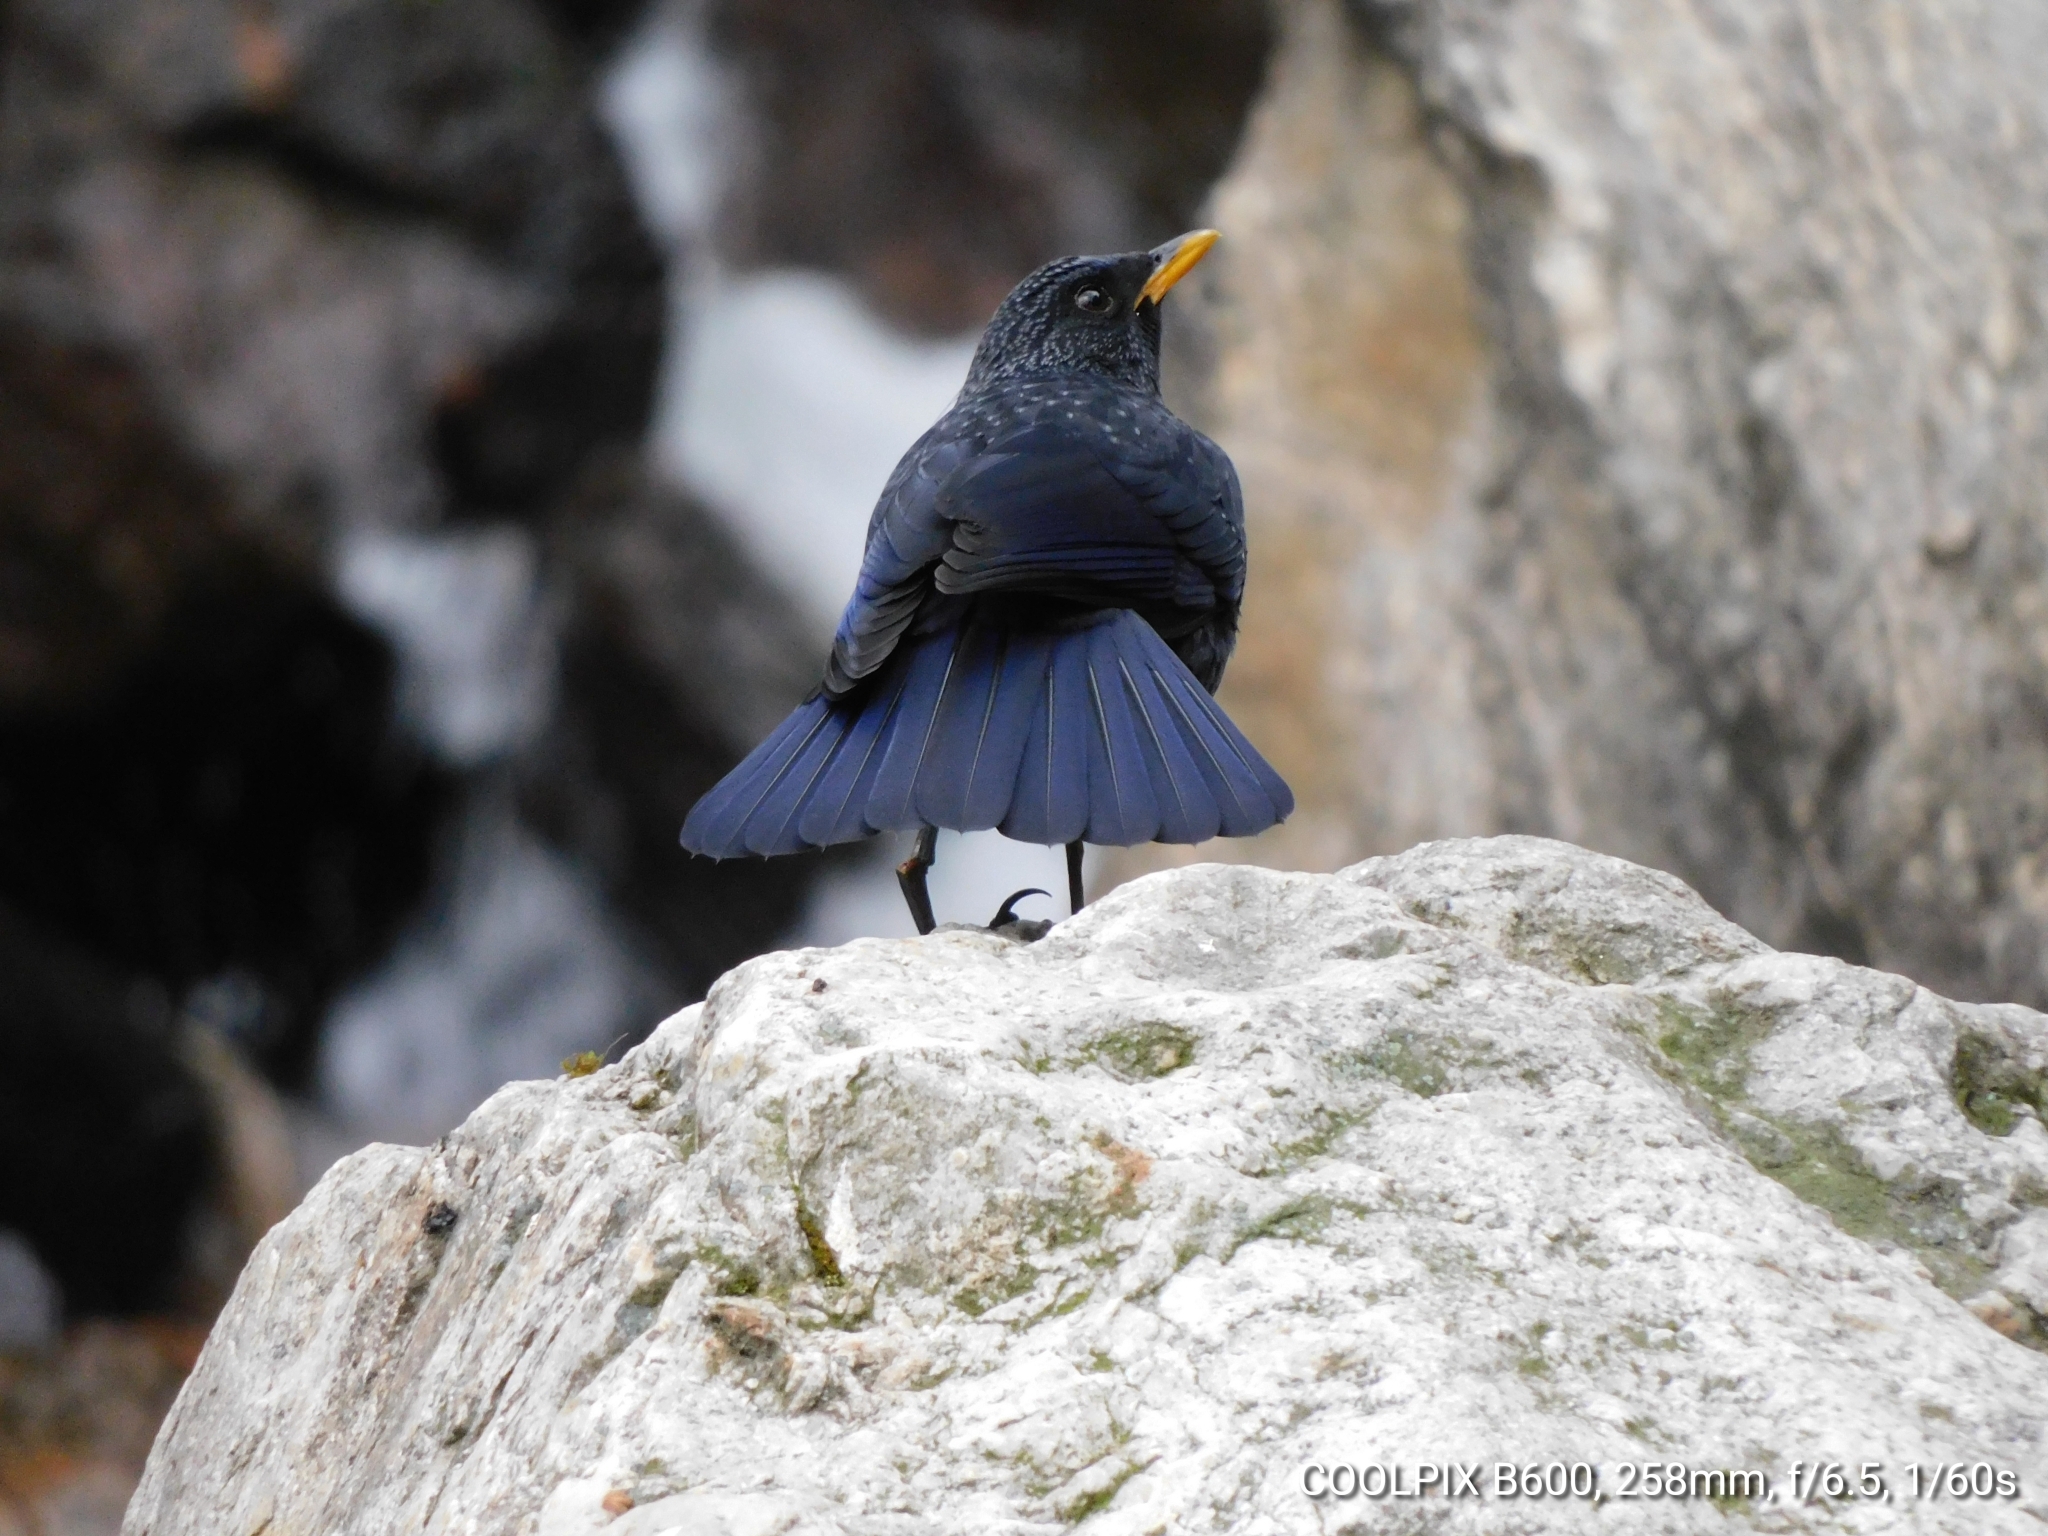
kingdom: Animalia
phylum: Chordata
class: Aves
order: Passeriformes
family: Muscicapidae
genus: Myophonus
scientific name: Myophonus caeruleus
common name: Blue whistling-thrush
